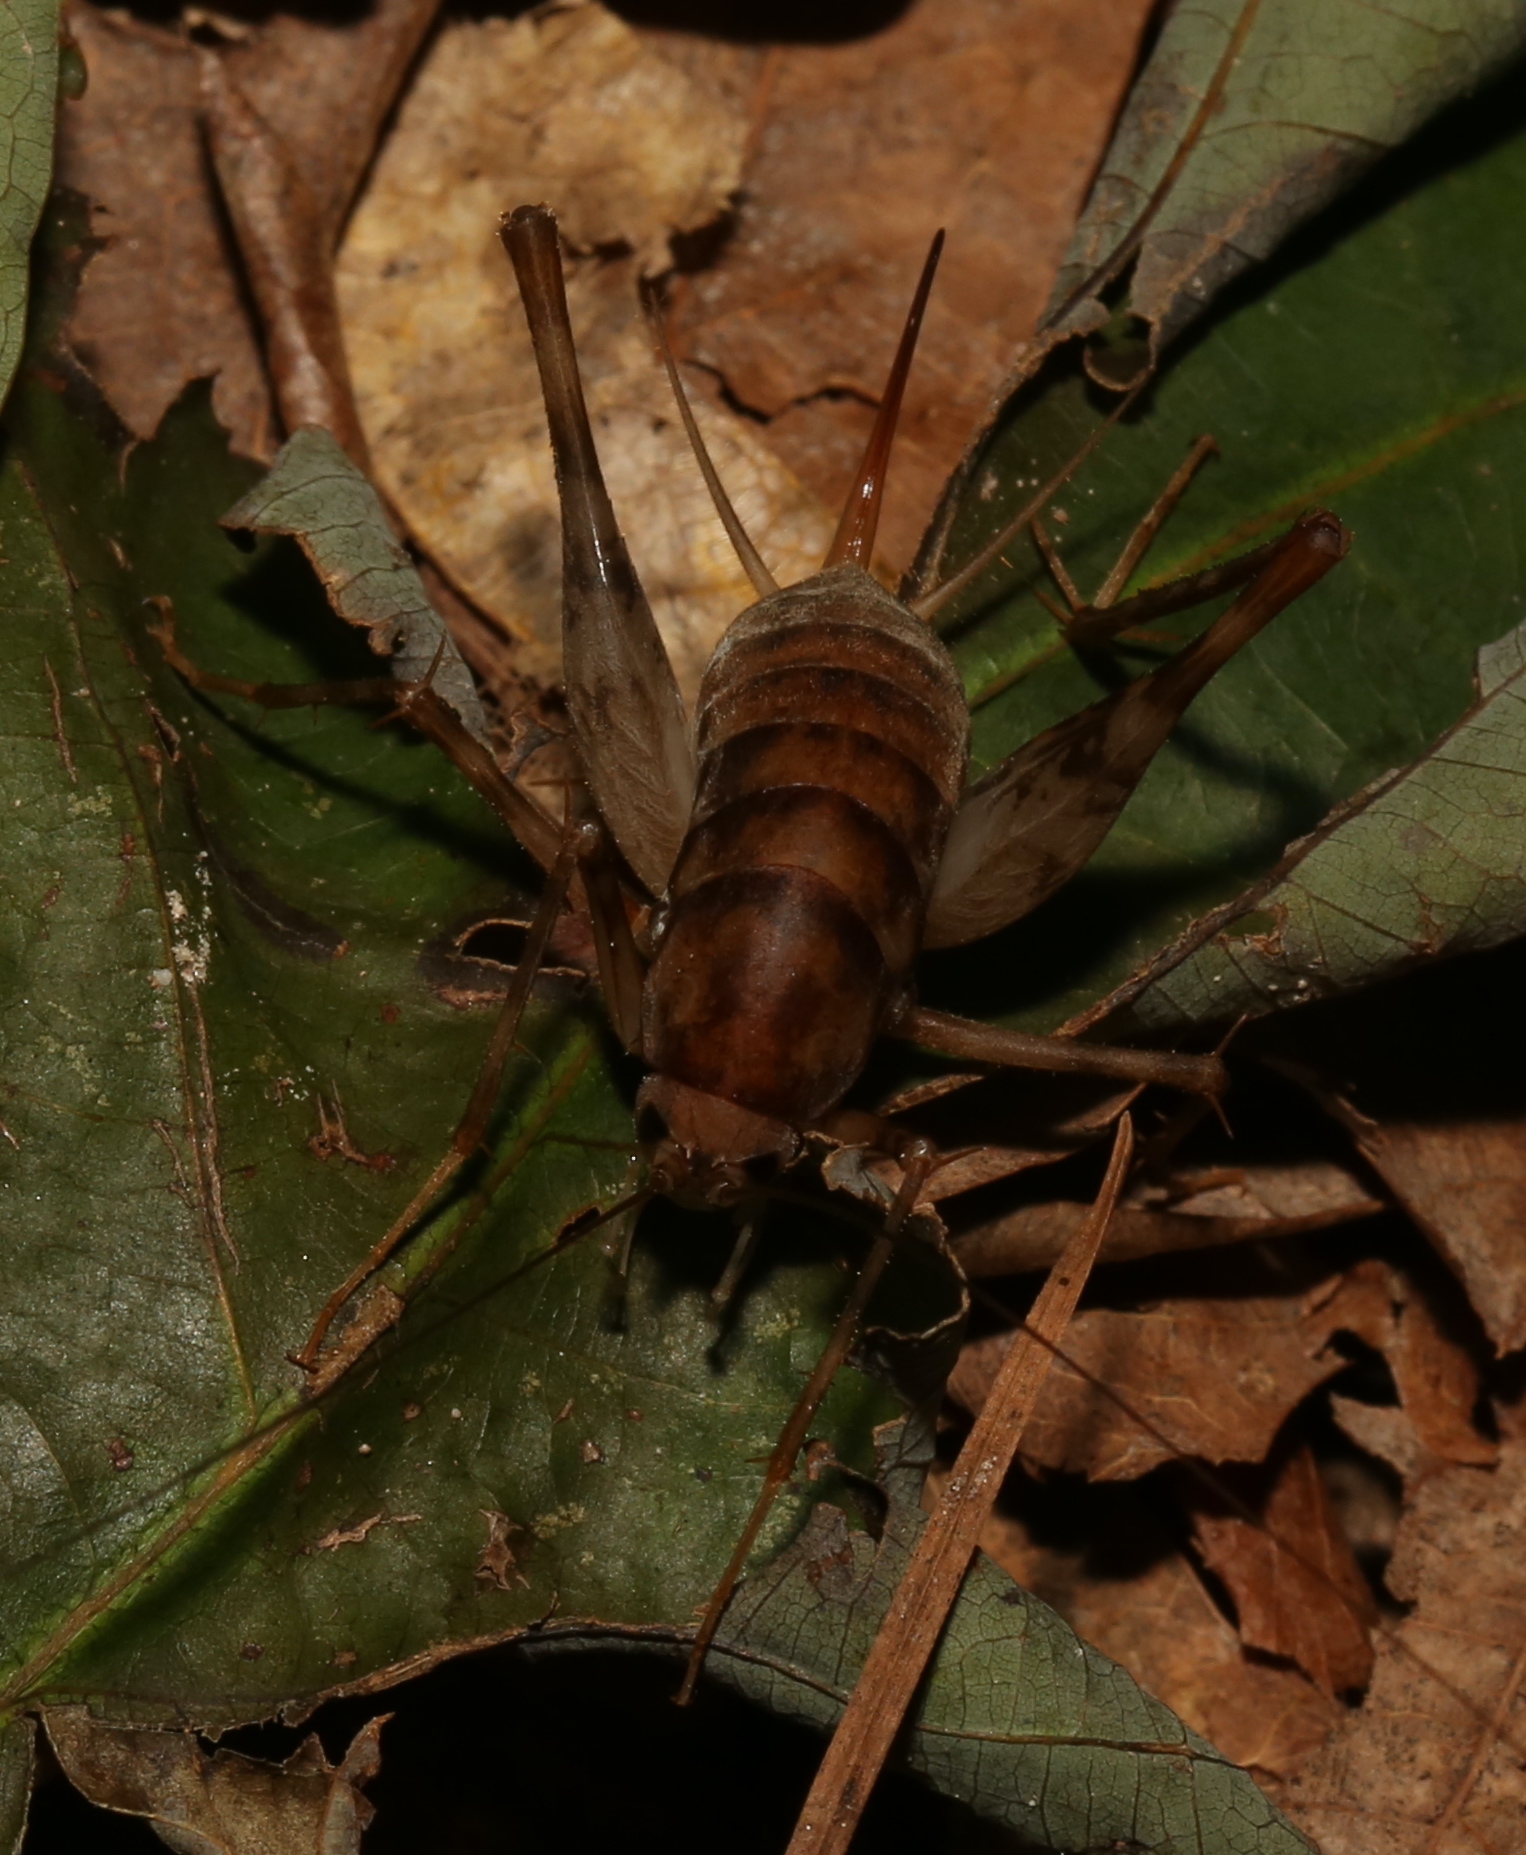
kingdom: Animalia
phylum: Arthropoda
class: Insecta
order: Orthoptera
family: Rhaphidophoridae
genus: Tachycines
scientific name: Tachycines asynamorus
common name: Greenhouse camel cricket
